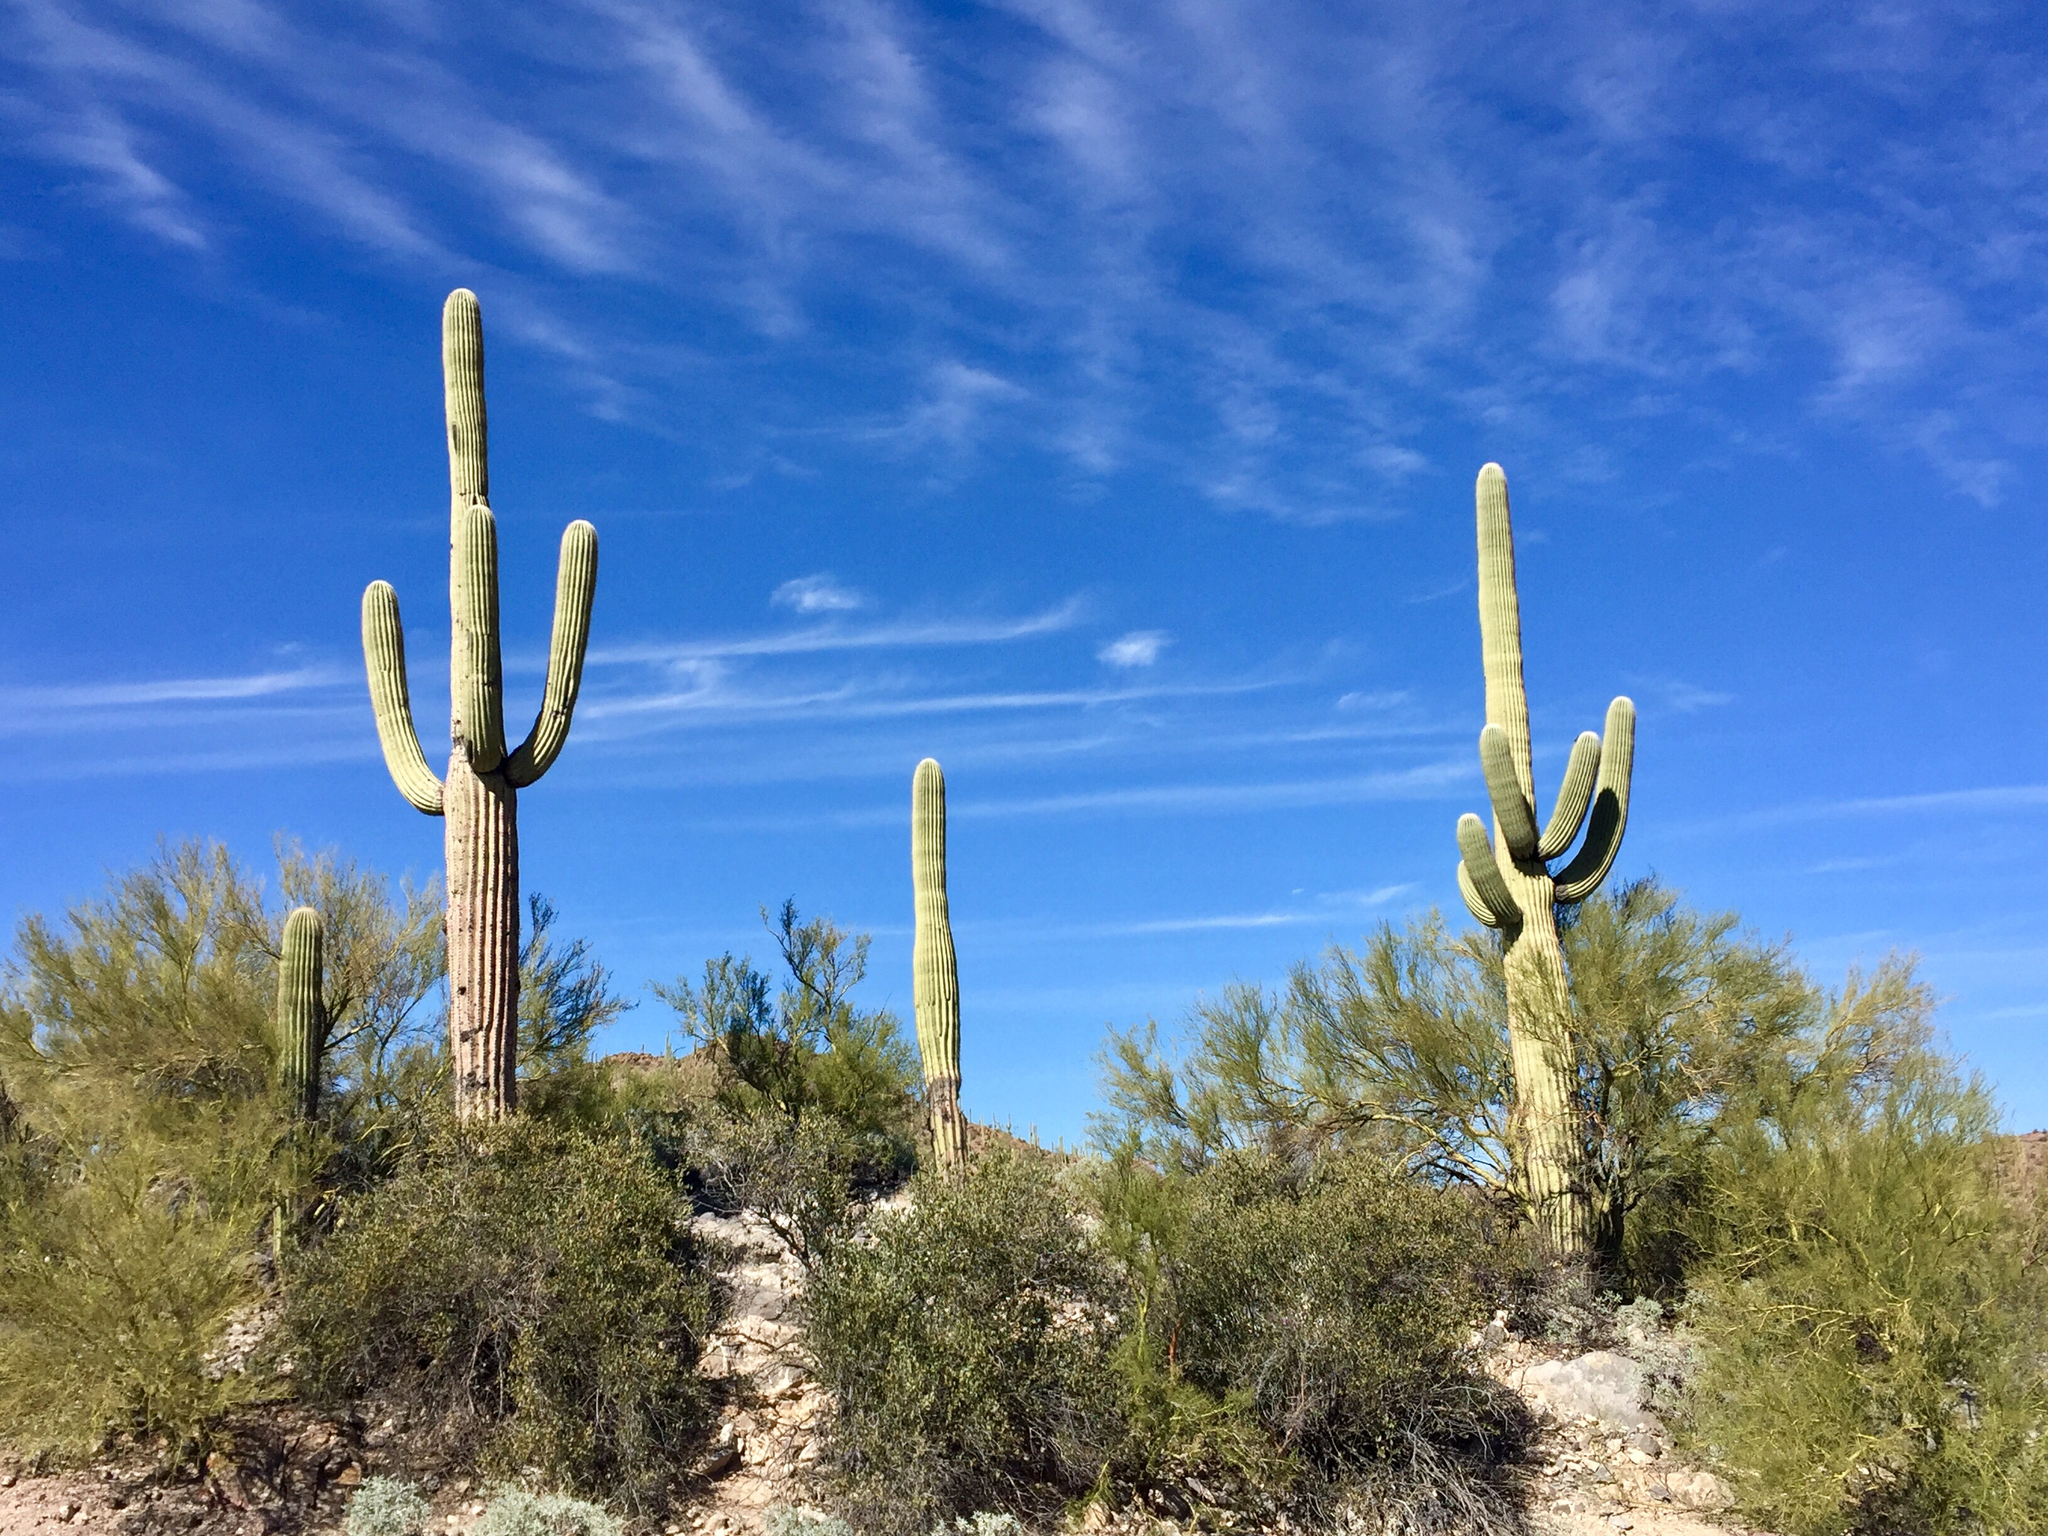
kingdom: Plantae
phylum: Tracheophyta
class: Magnoliopsida
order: Caryophyllales
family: Cactaceae
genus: Carnegiea
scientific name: Carnegiea gigantea
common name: Saguaro
